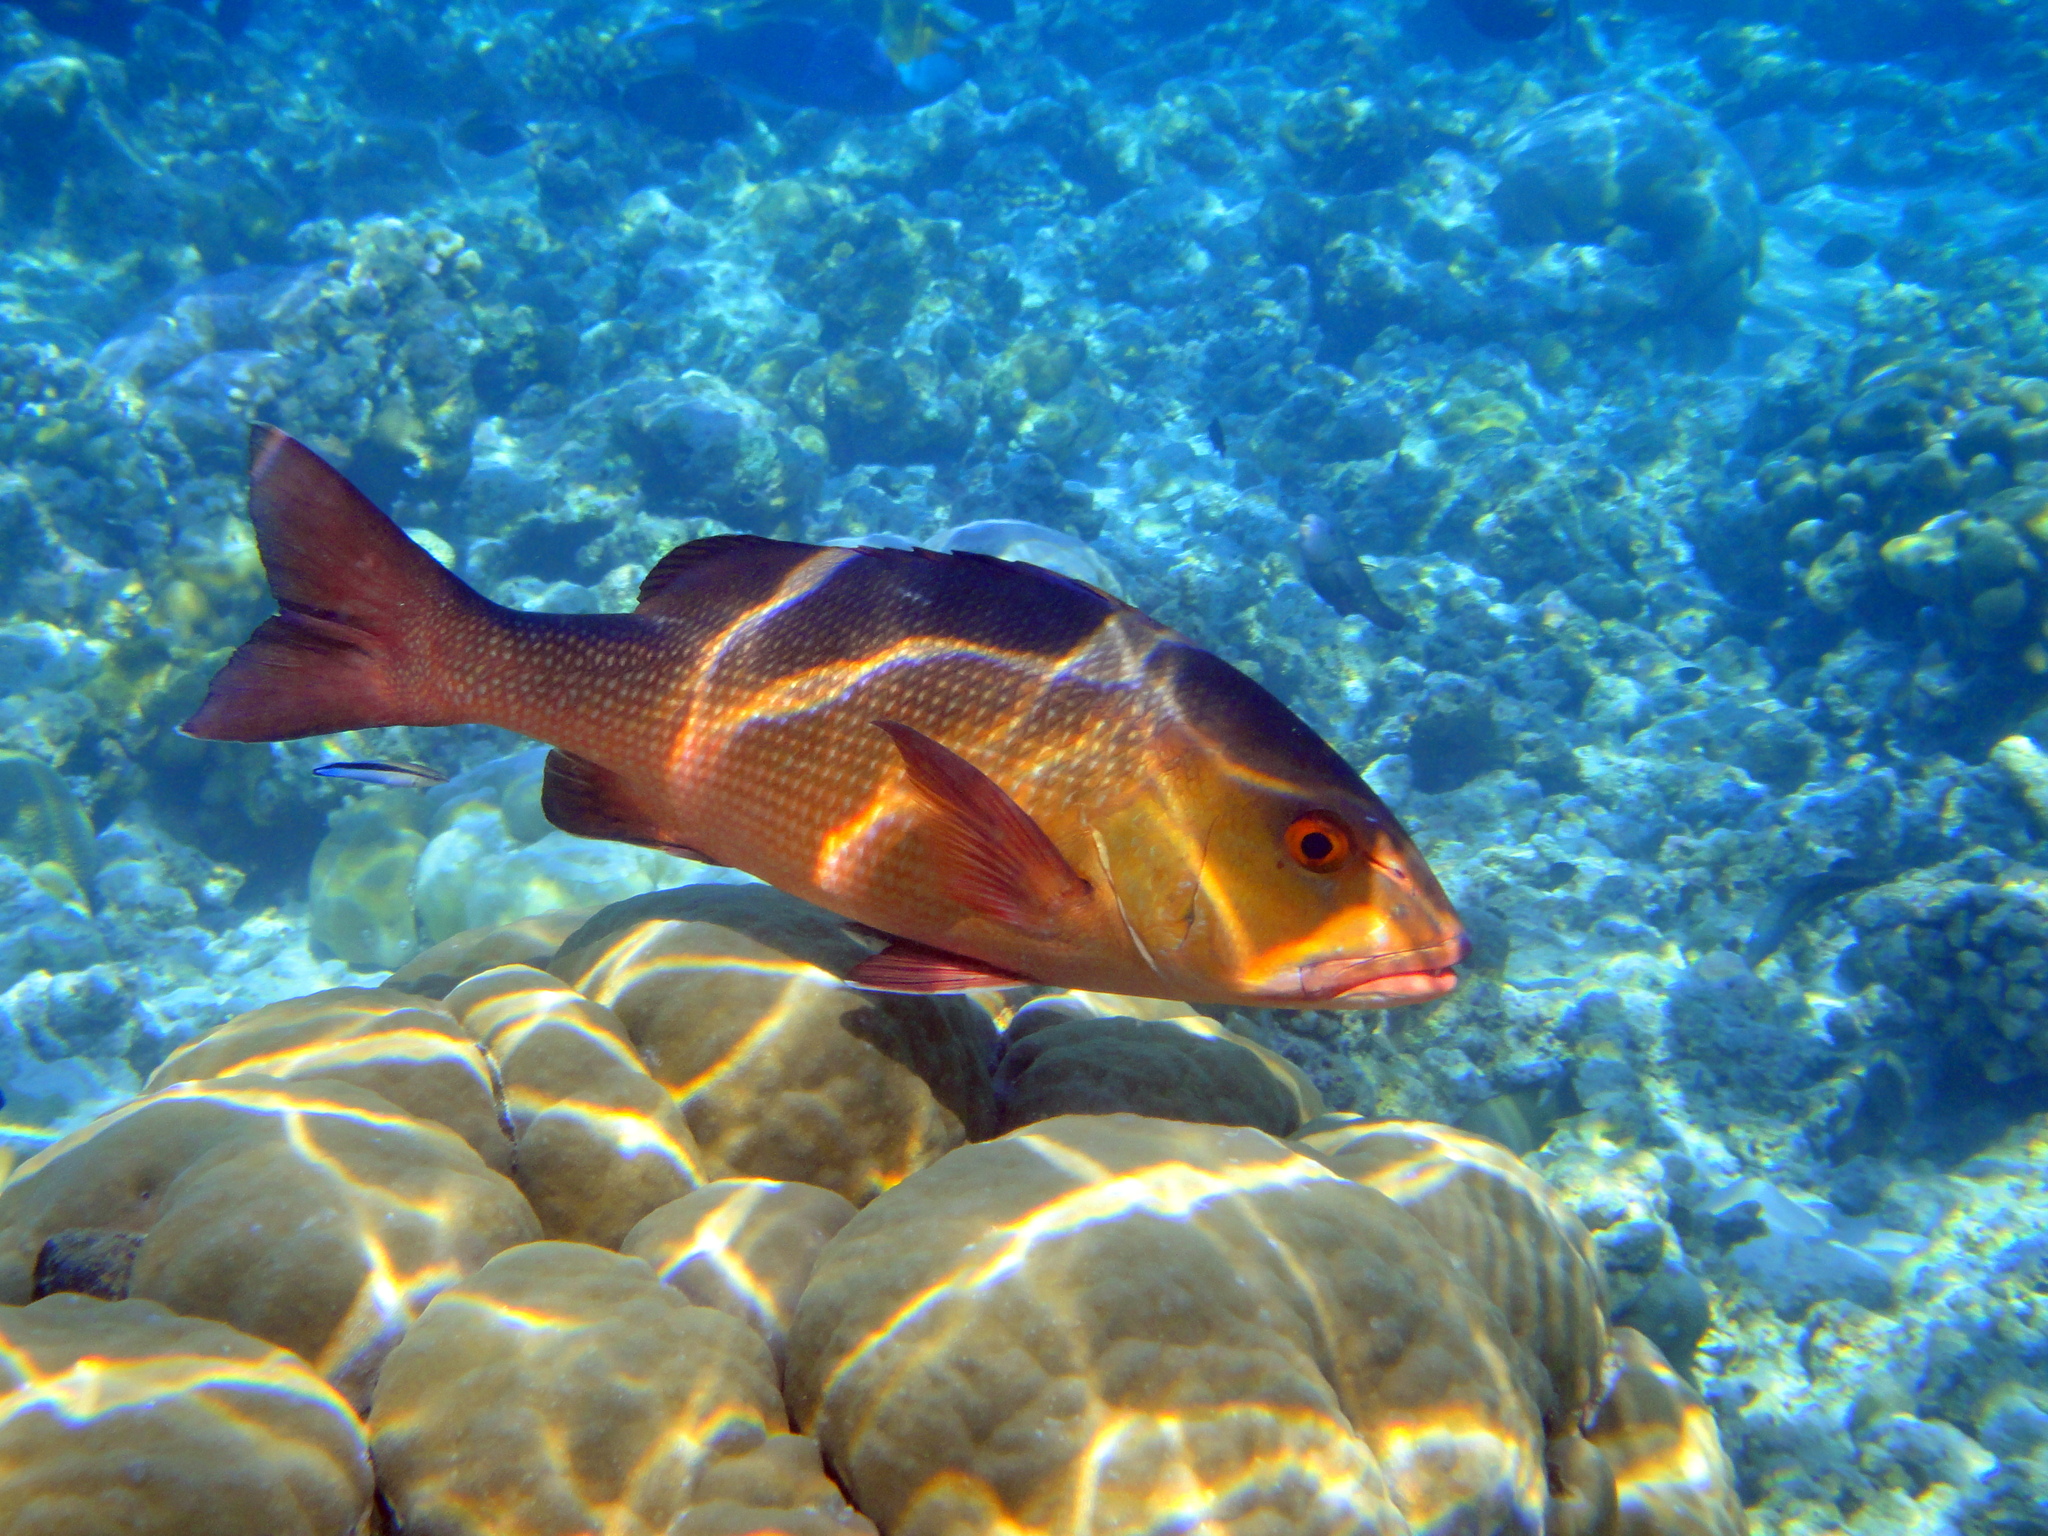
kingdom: Animalia
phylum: Chordata
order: Perciformes
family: Lutjanidae
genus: Lutjanus
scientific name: Lutjanus bohar
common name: Red bass
